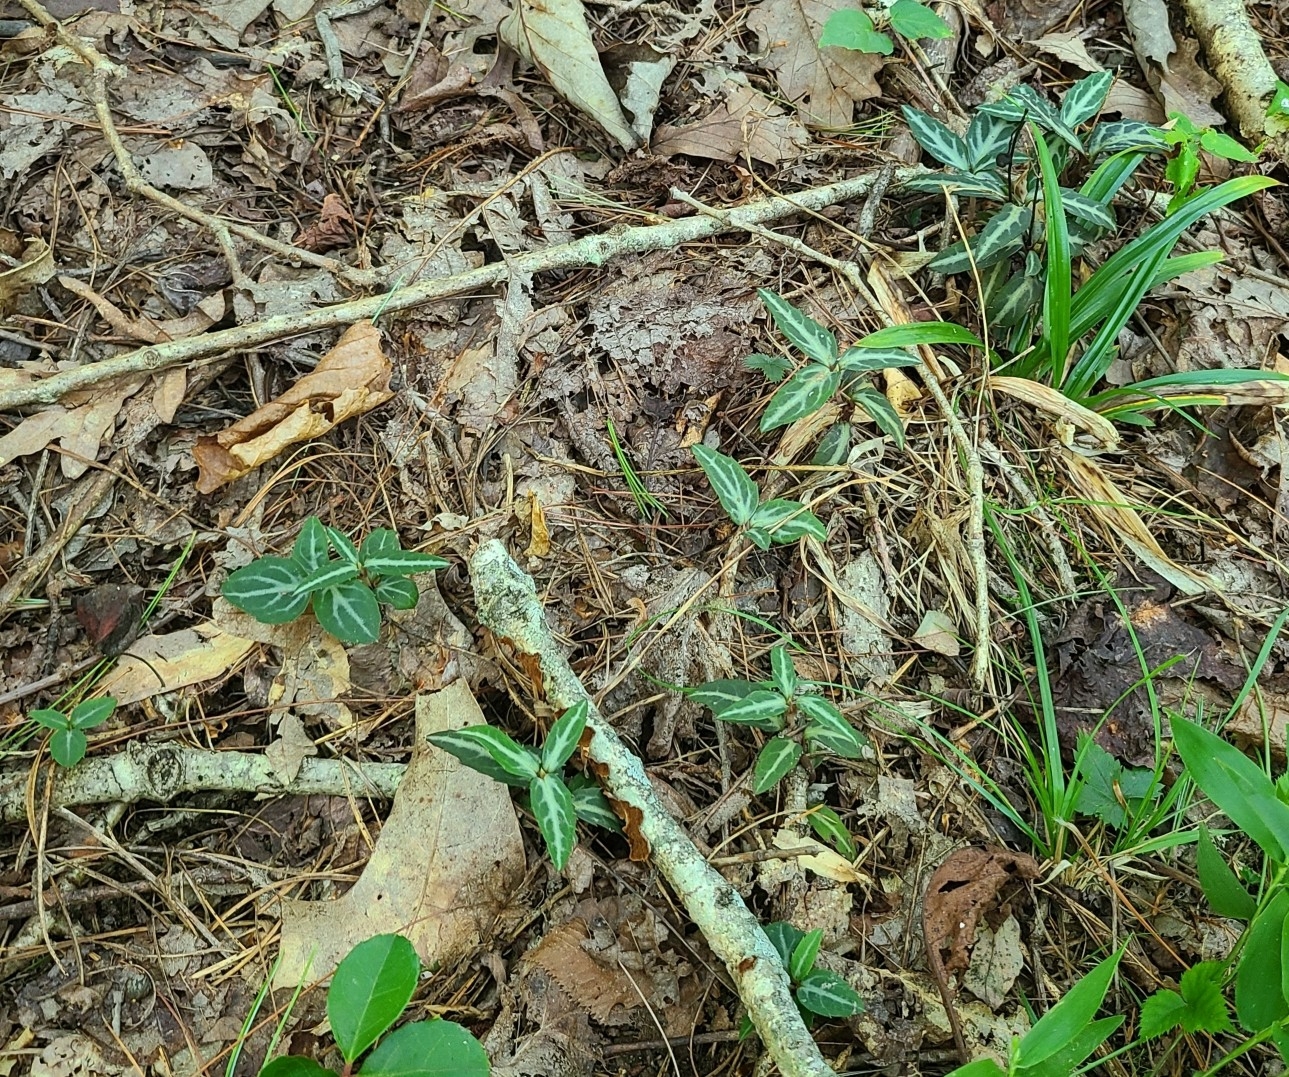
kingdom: Plantae
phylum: Tracheophyta
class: Magnoliopsida
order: Ericales
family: Ericaceae
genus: Chimaphila
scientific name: Chimaphila maculata
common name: Spotted pipsissewa
